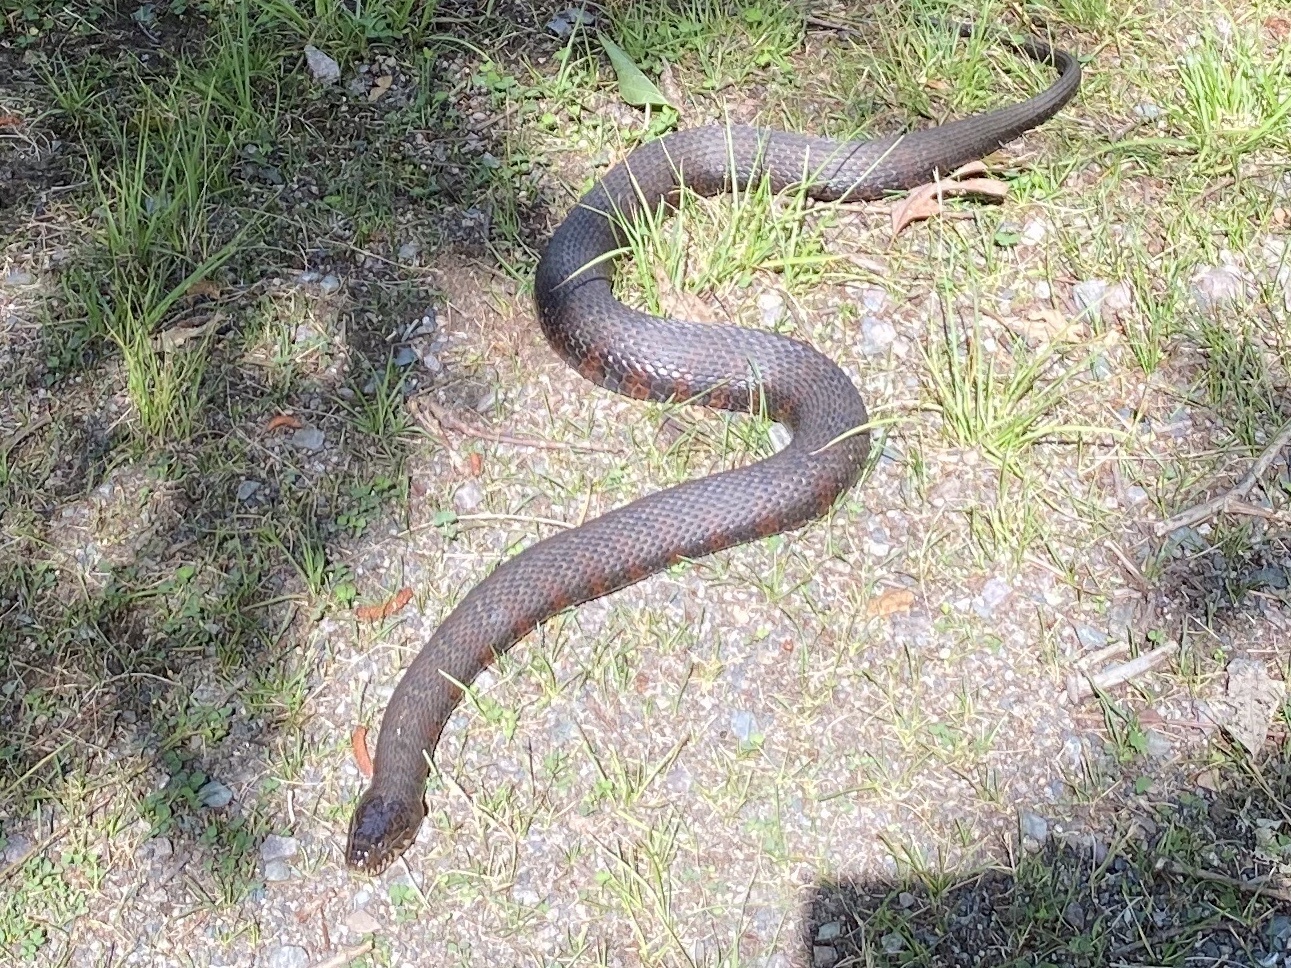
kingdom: Animalia
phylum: Chordata
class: Squamata
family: Colubridae
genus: Nerodia
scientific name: Nerodia sipedon
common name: Northern water snake
